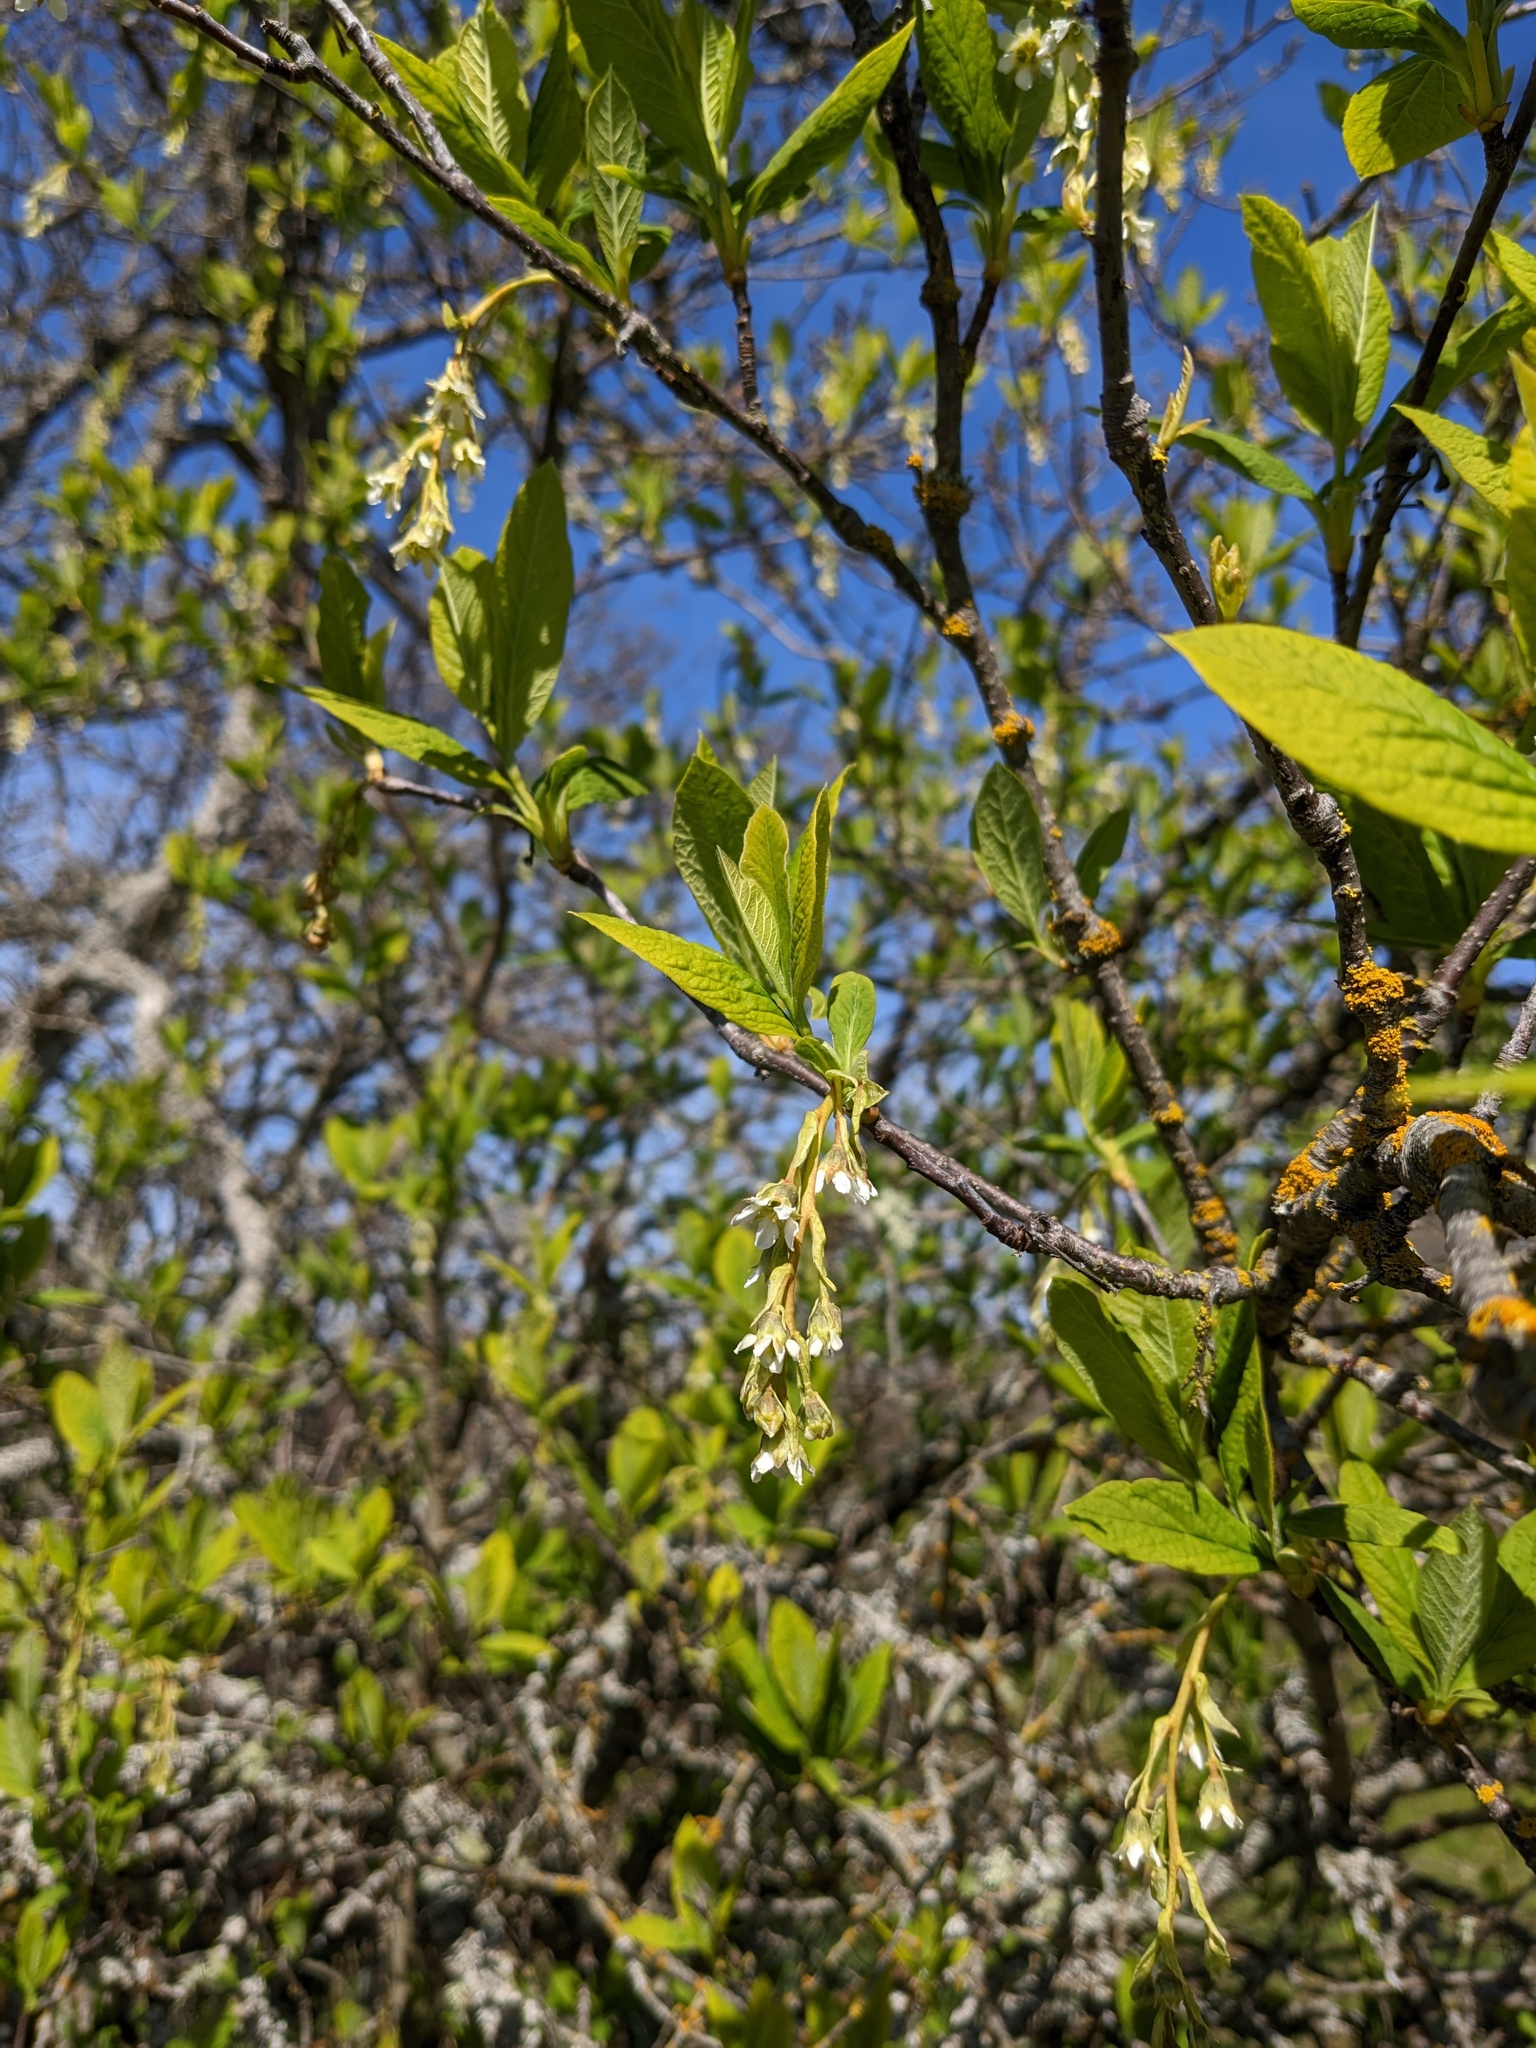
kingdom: Plantae
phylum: Tracheophyta
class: Magnoliopsida
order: Rosales
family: Rosaceae
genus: Oemleria
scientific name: Oemleria cerasiformis
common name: Osoberry
